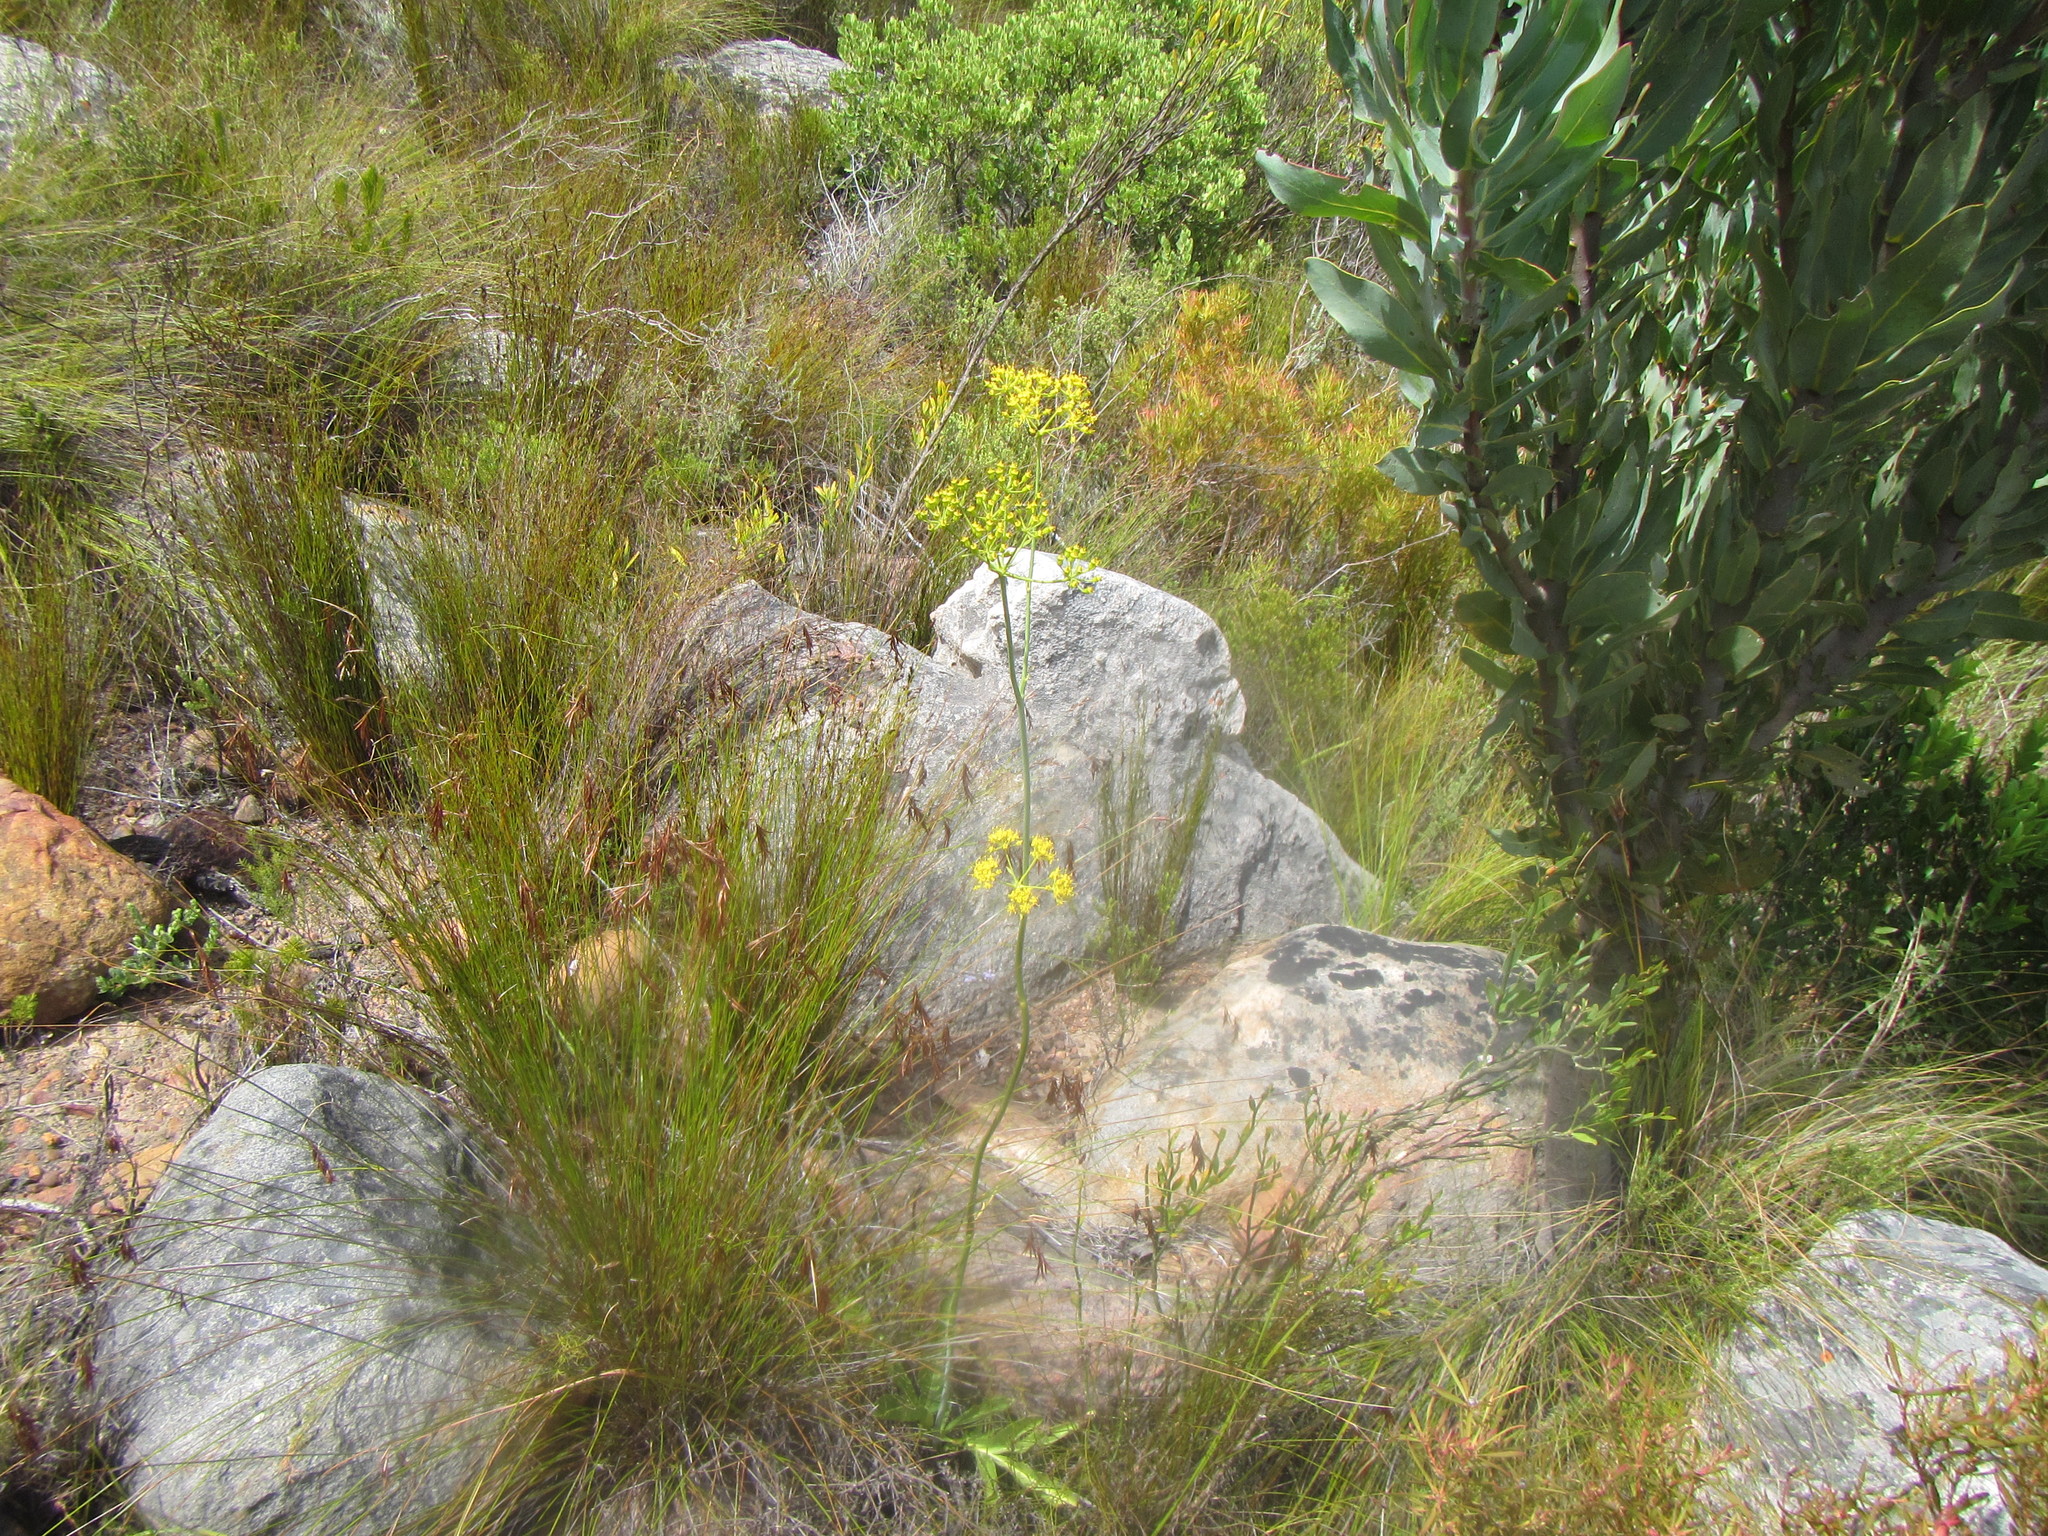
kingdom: Plantae
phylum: Tracheophyta
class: Magnoliopsida
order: Apiales
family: Apiaceae
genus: Lichtensteinia
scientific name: Lichtensteinia trifida
